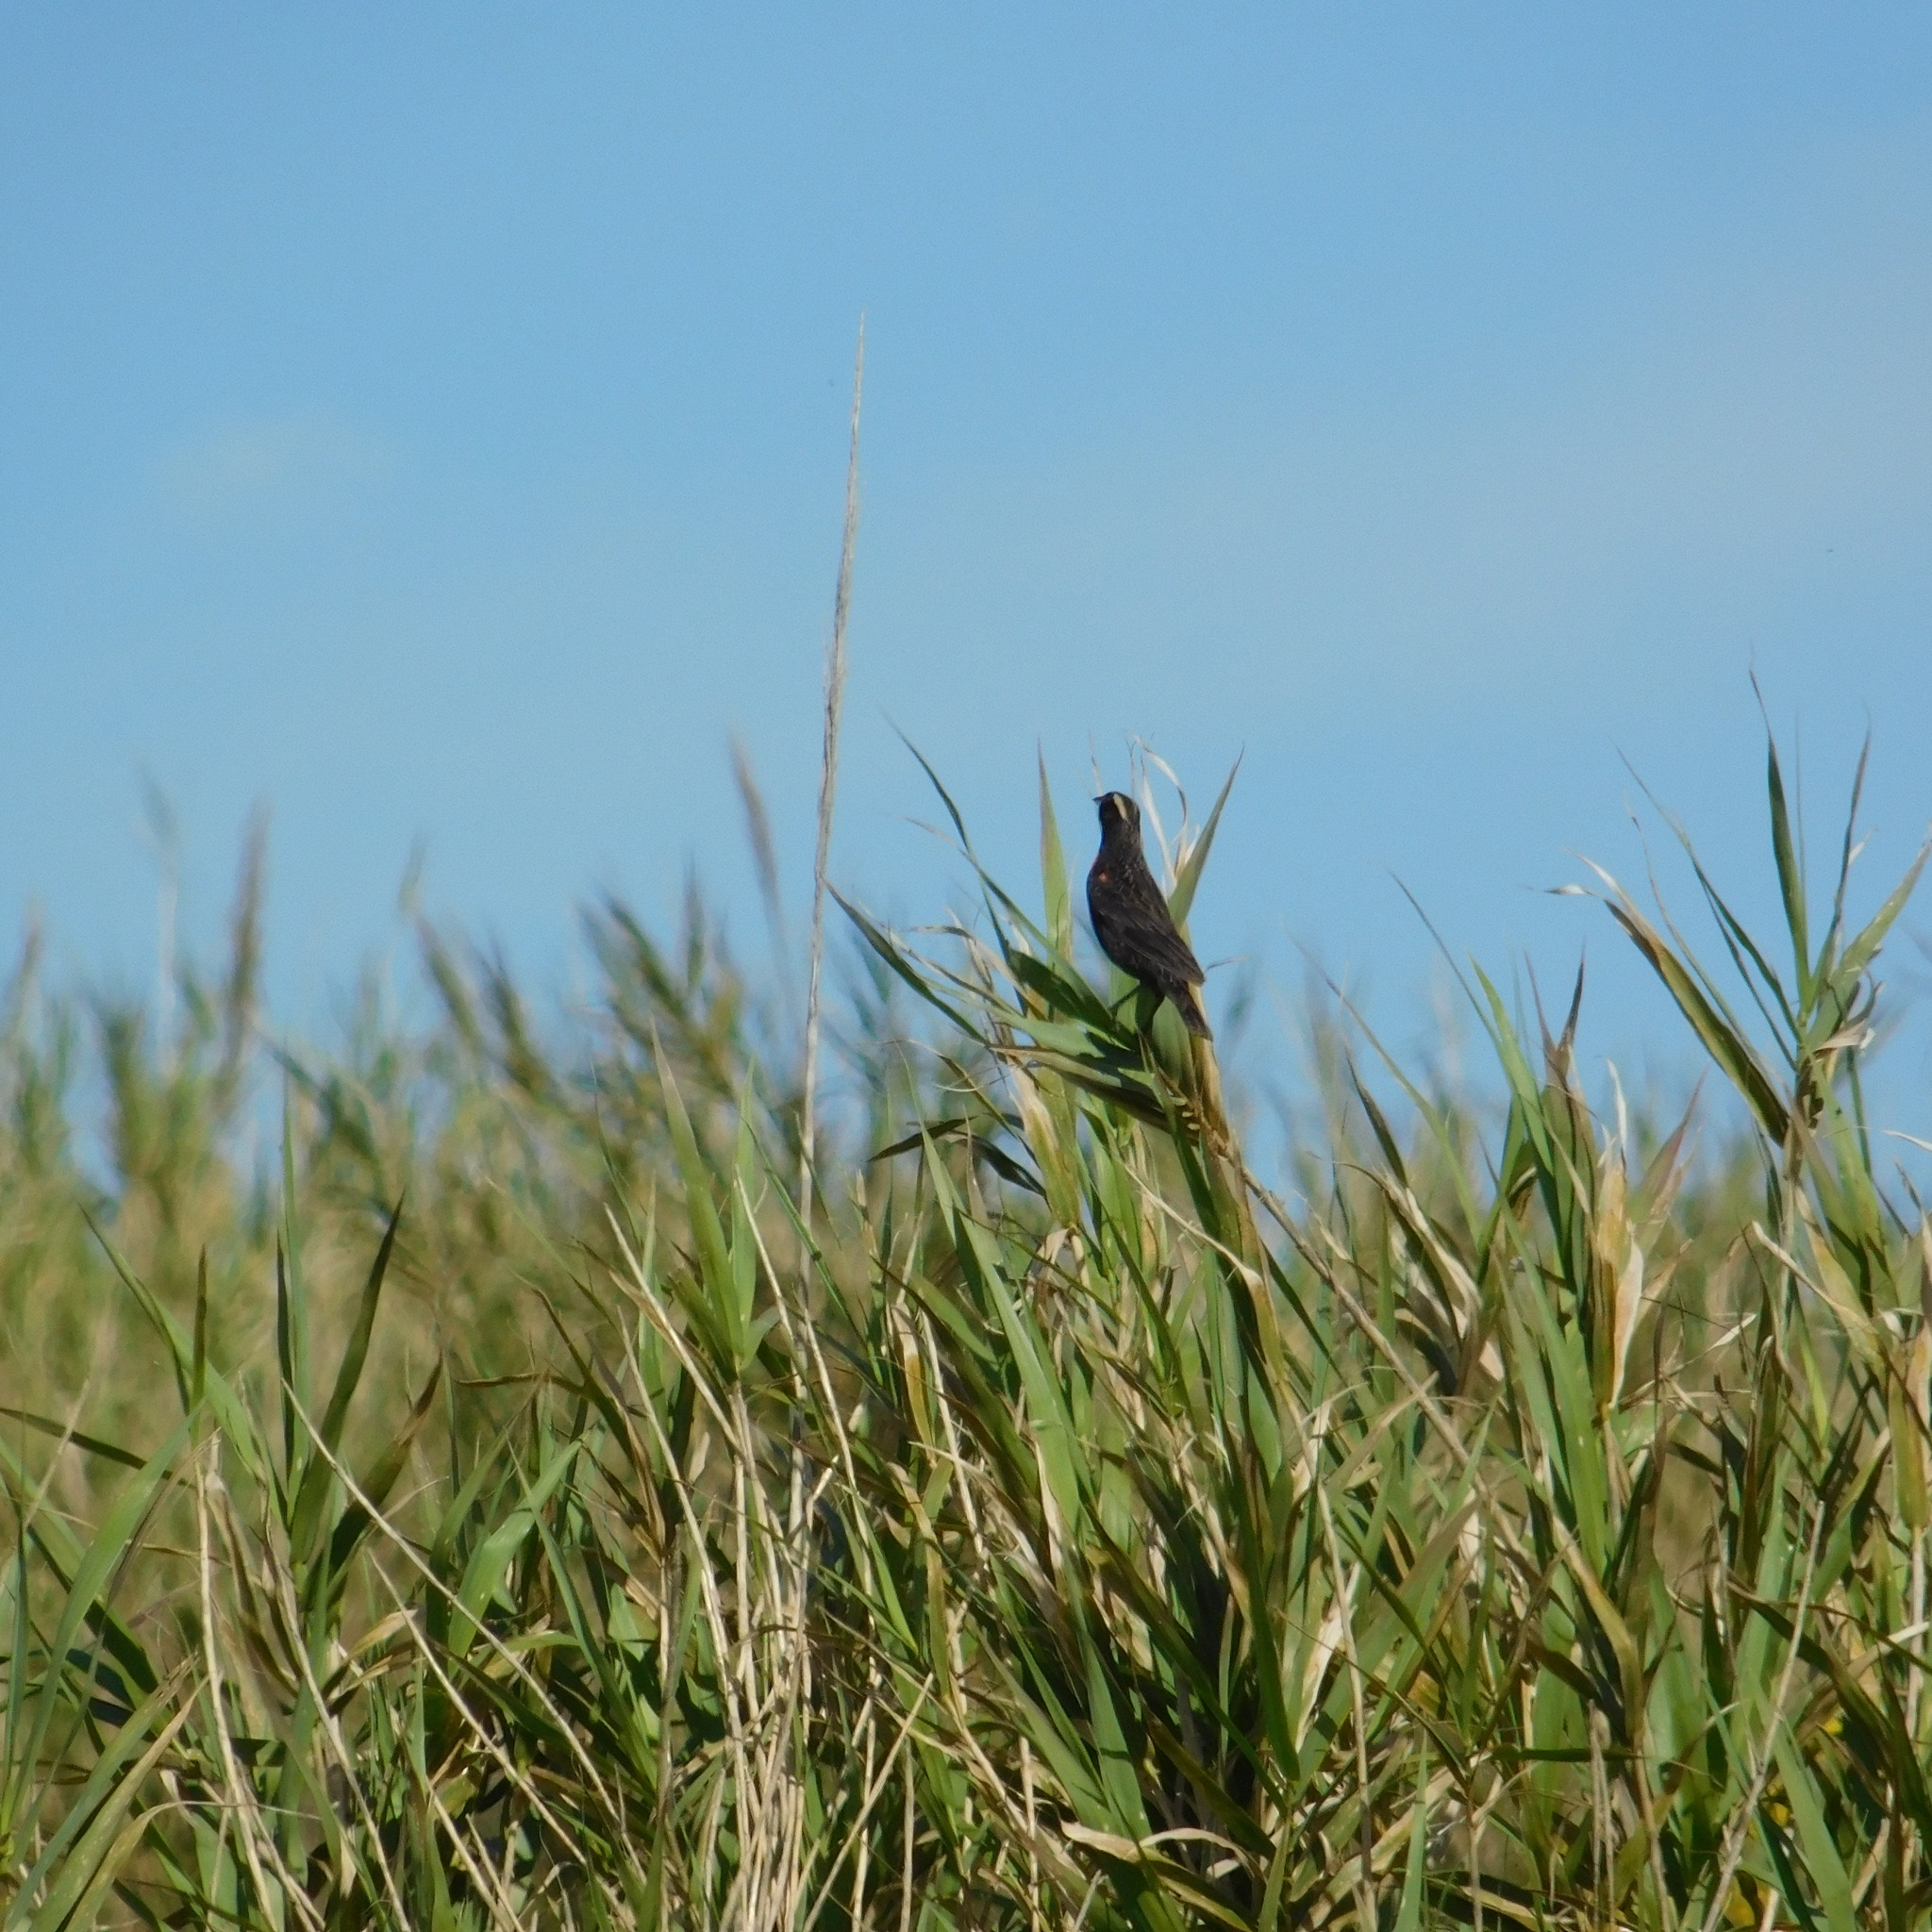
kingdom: Animalia
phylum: Chordata
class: Aves
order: Passeriformes
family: Icteridae
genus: Sturnella
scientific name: Sturnella superciliaris
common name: White-browed blackbird
